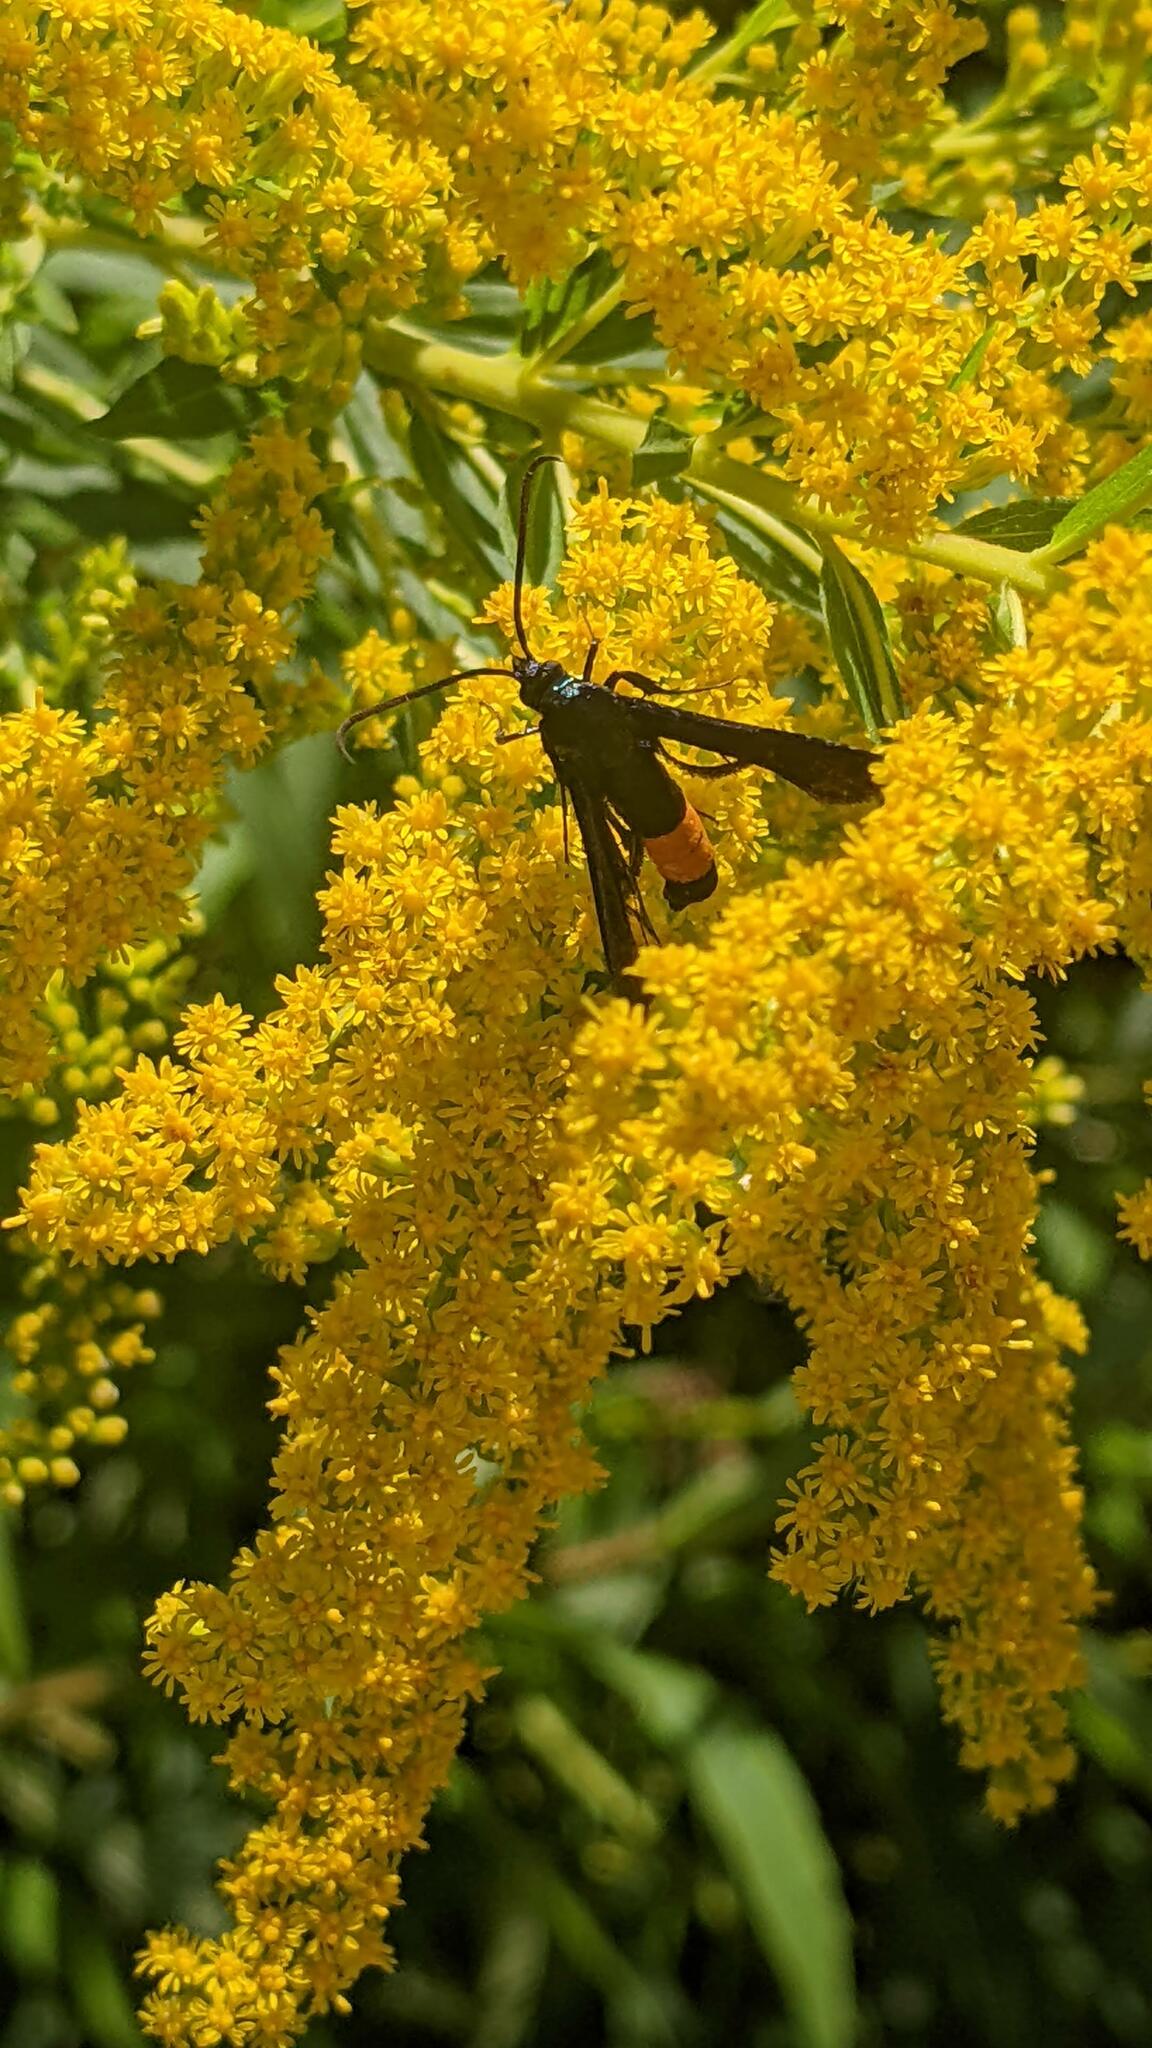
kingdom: Animalia
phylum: Arthropoda
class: Insecta
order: Lepidoptera
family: Sesiidae
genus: Synanthedon
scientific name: Synanthedon exitiosa
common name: Peachtree borer moth
